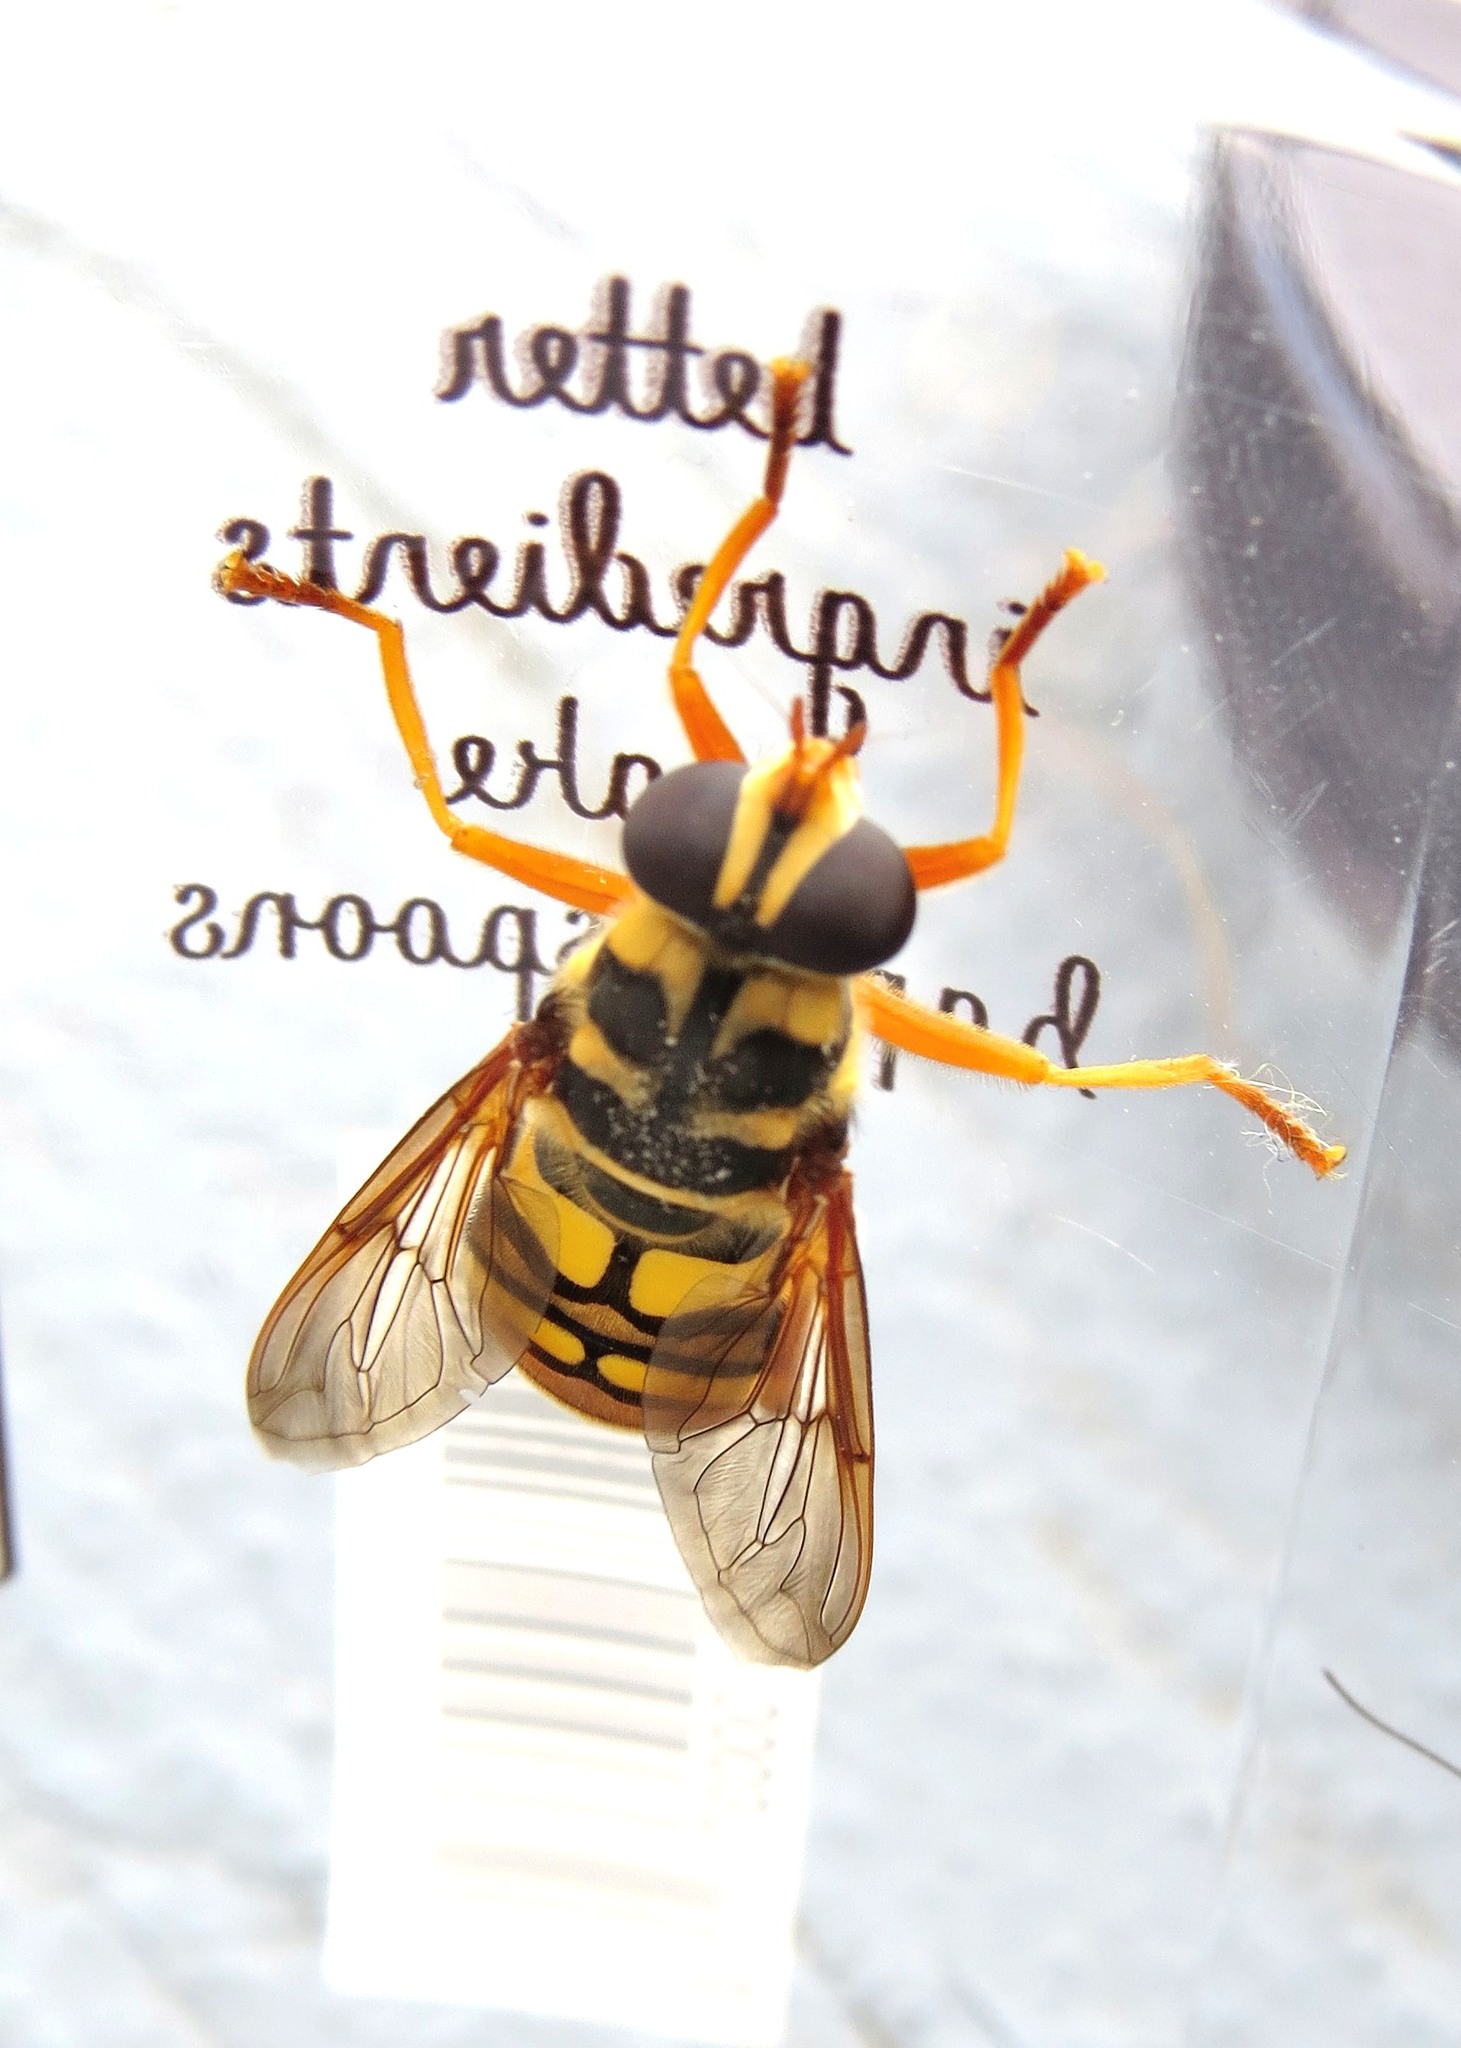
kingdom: Animalia
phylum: Arthropoda
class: Insecta
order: Diptera
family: Syrphidae
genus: Milesia
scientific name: Milesia virginiensis
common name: Virginia giant
